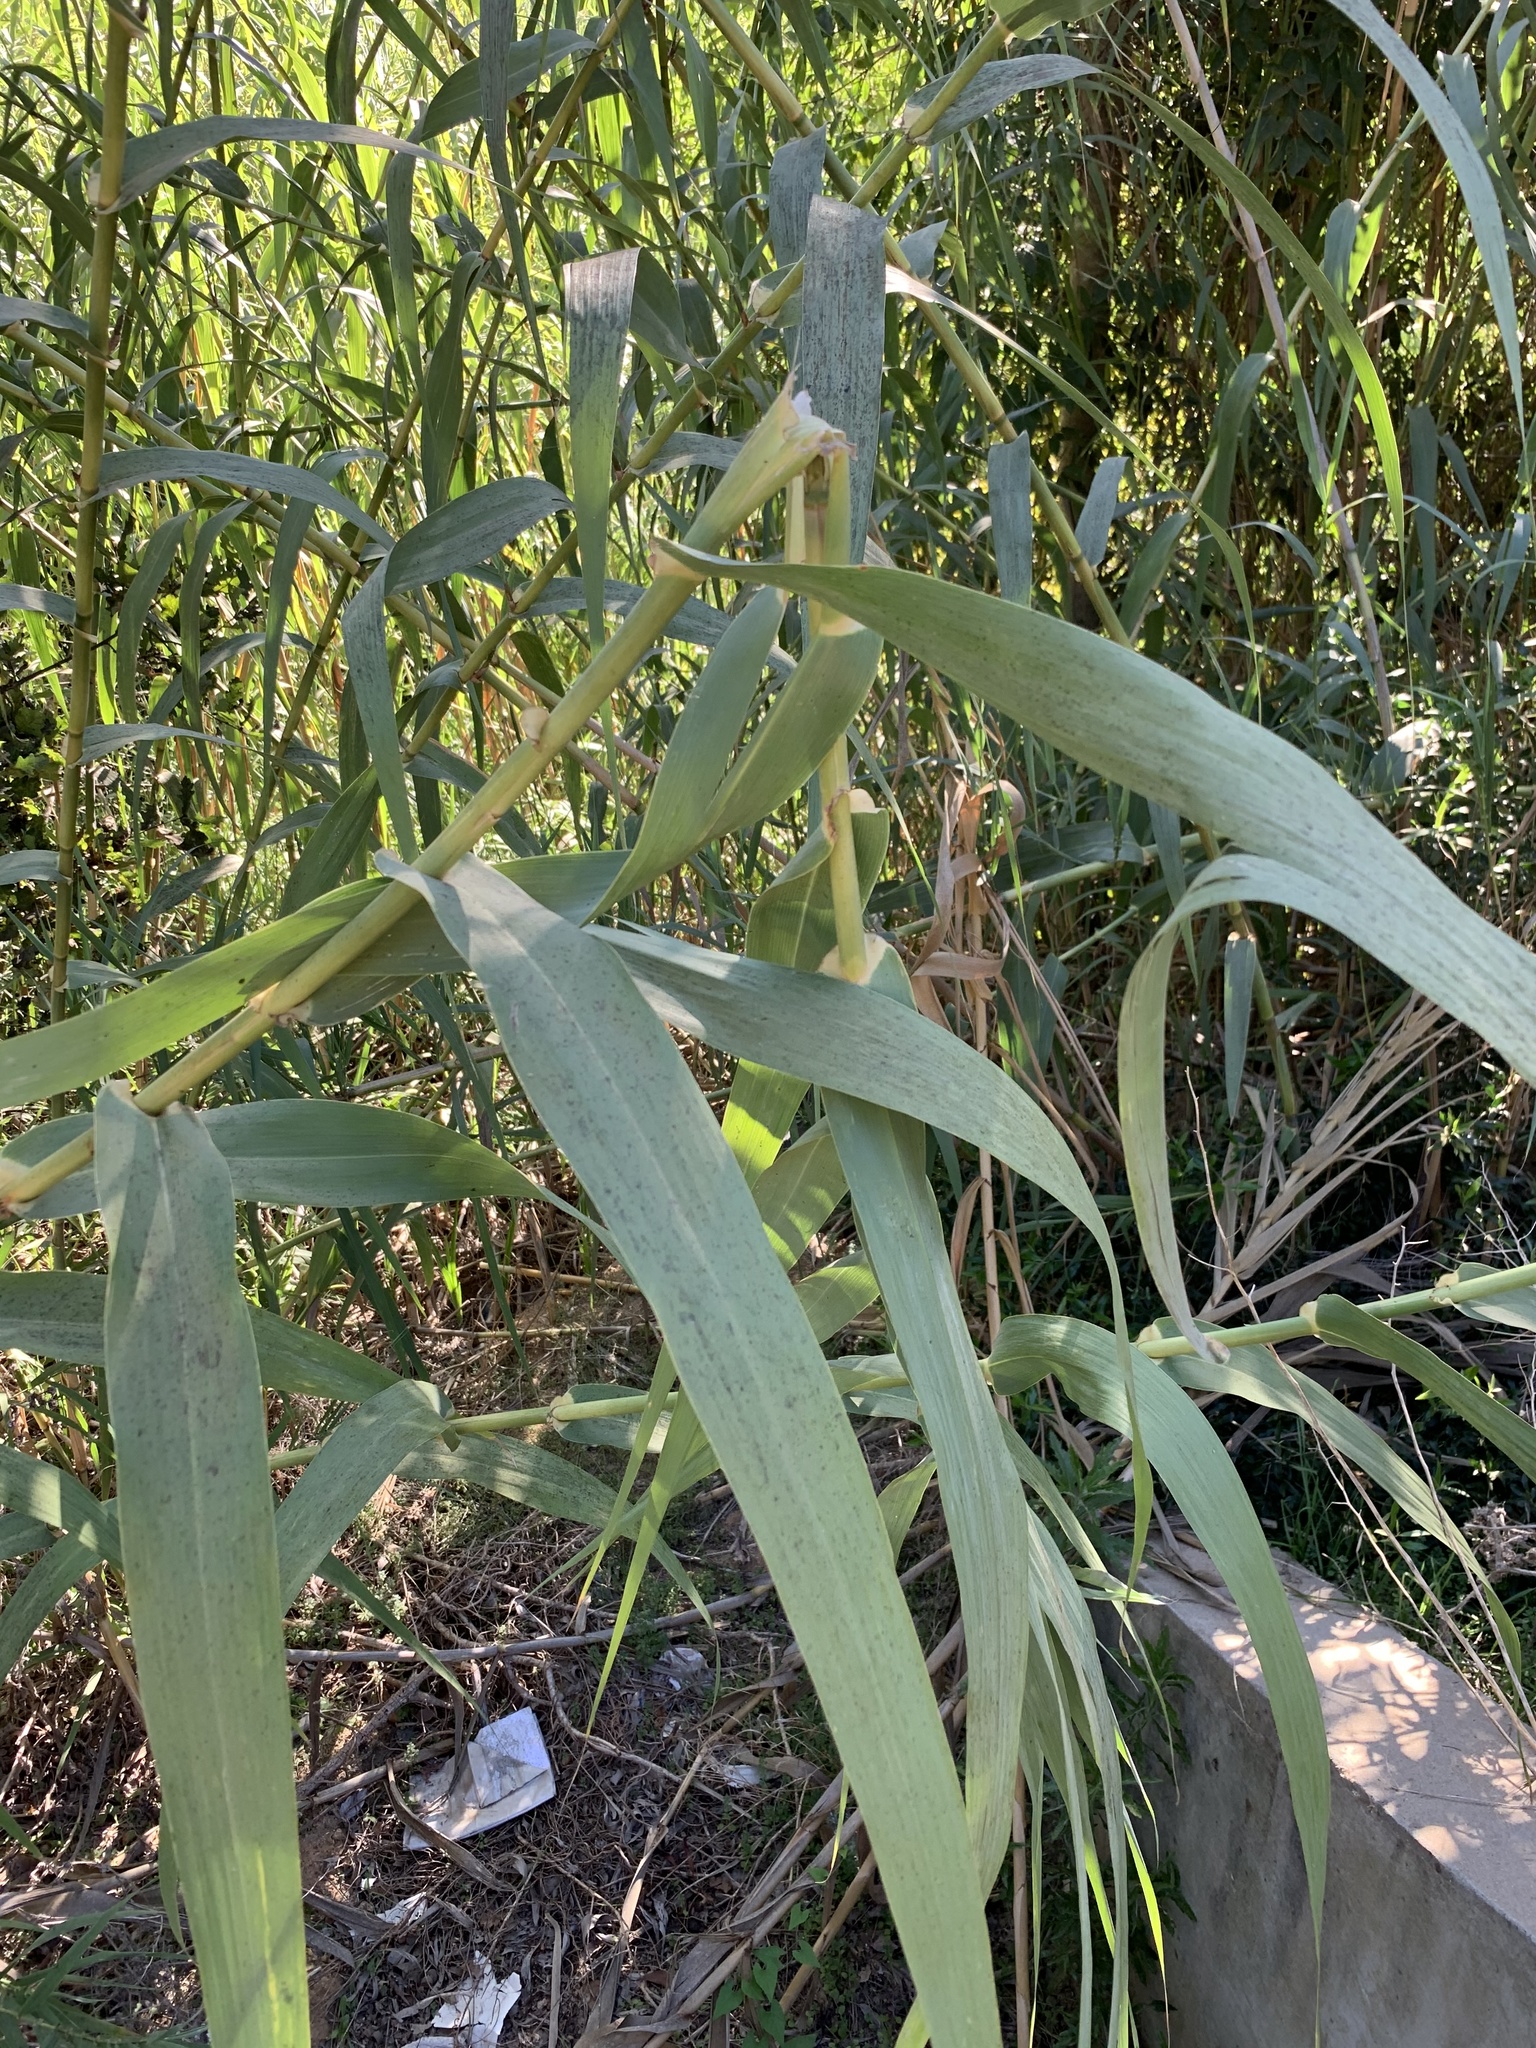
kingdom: Plantae
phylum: Tracheophyta
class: Liliopsida
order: Poales
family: Poaceae
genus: Arundo
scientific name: Arundo donax
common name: Giant reed
